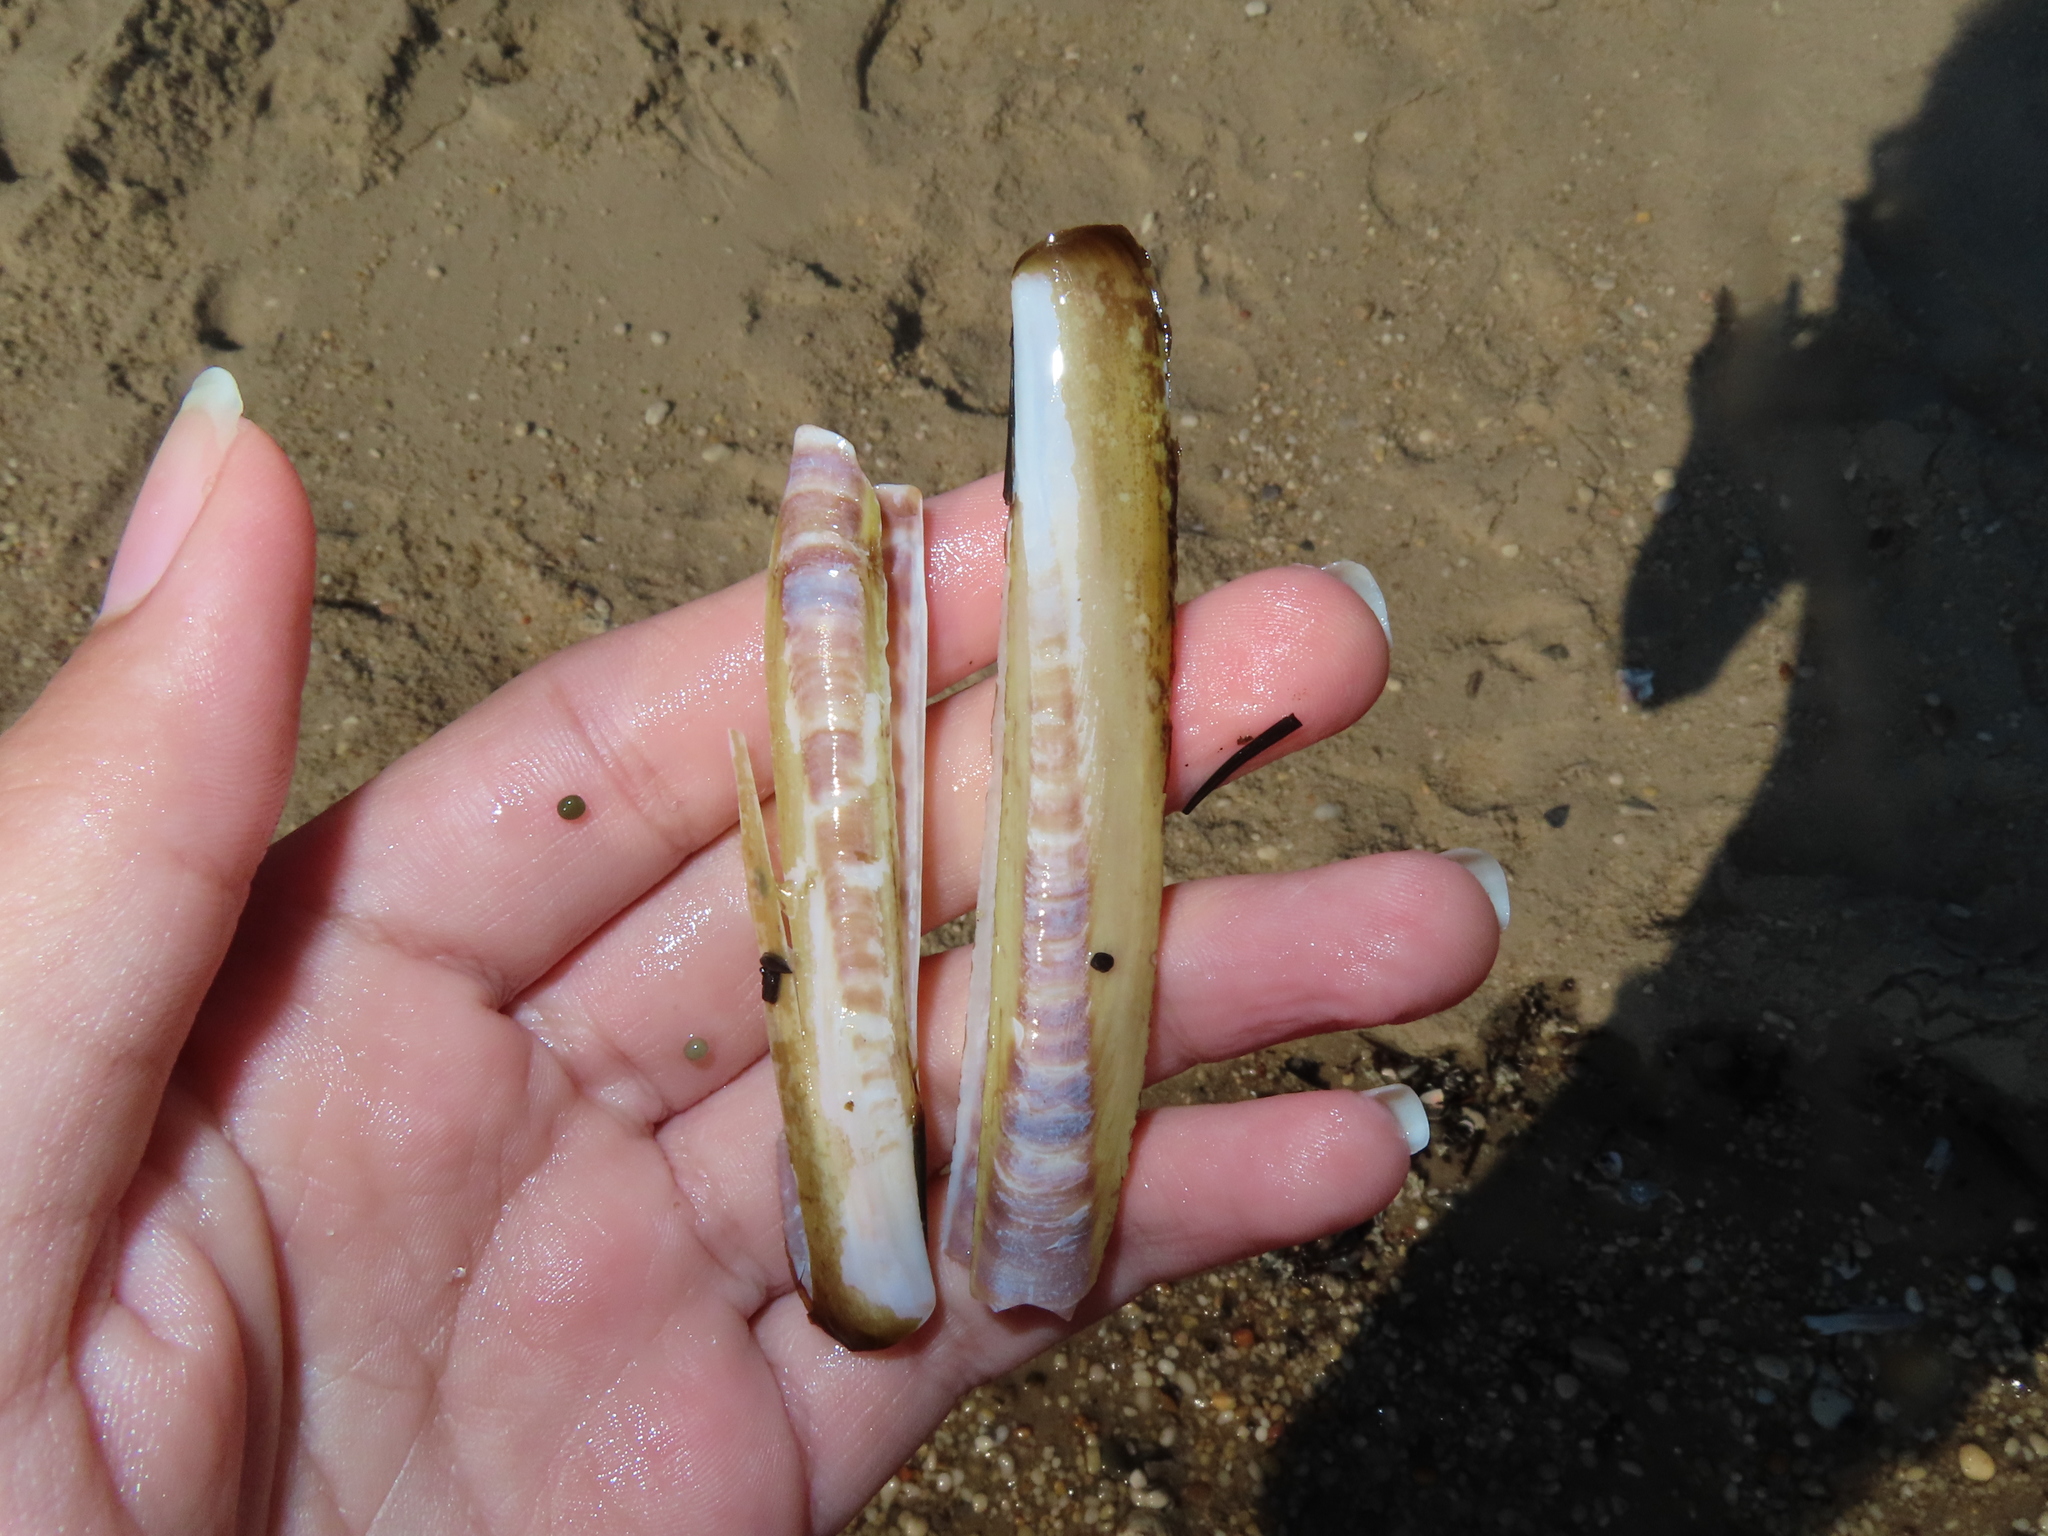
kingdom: Animalia
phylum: Mollusca
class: Bivalvia
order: Adapedonta
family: Pharidae
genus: Ensis
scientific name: Ensis leei
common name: American jack knife clam
